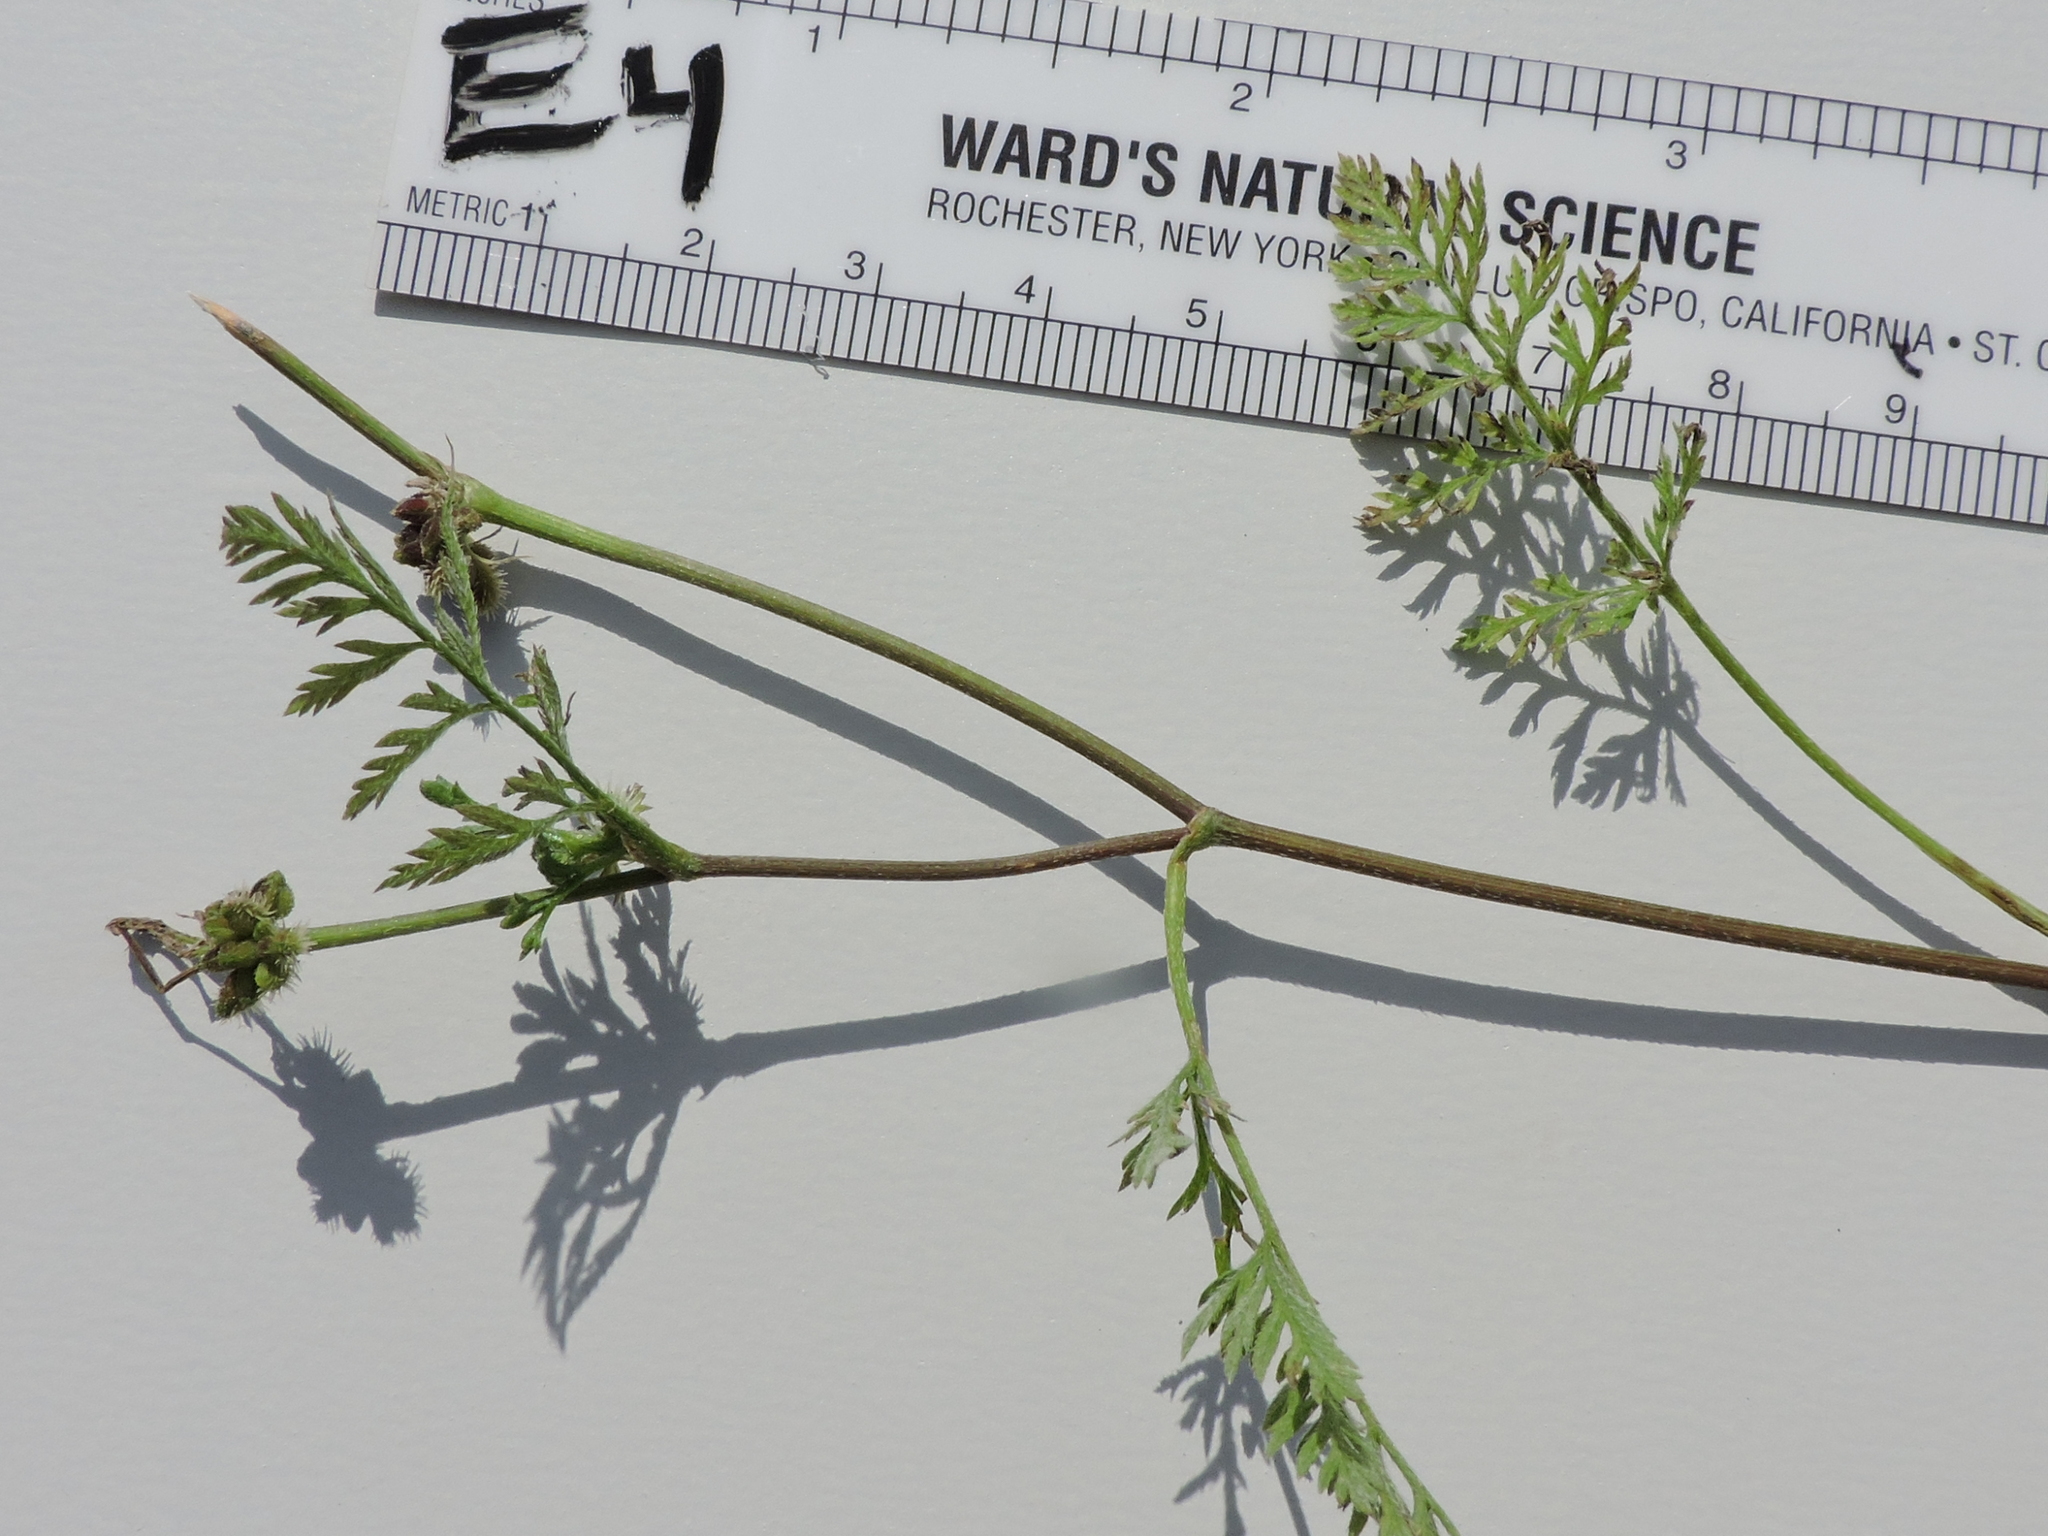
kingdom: Plantae
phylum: Tracheophyta
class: Magnoliopsida
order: Apiales
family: Apiaceae
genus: Torilis
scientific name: Torilis nodosa
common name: Knotted hedge-parsley
